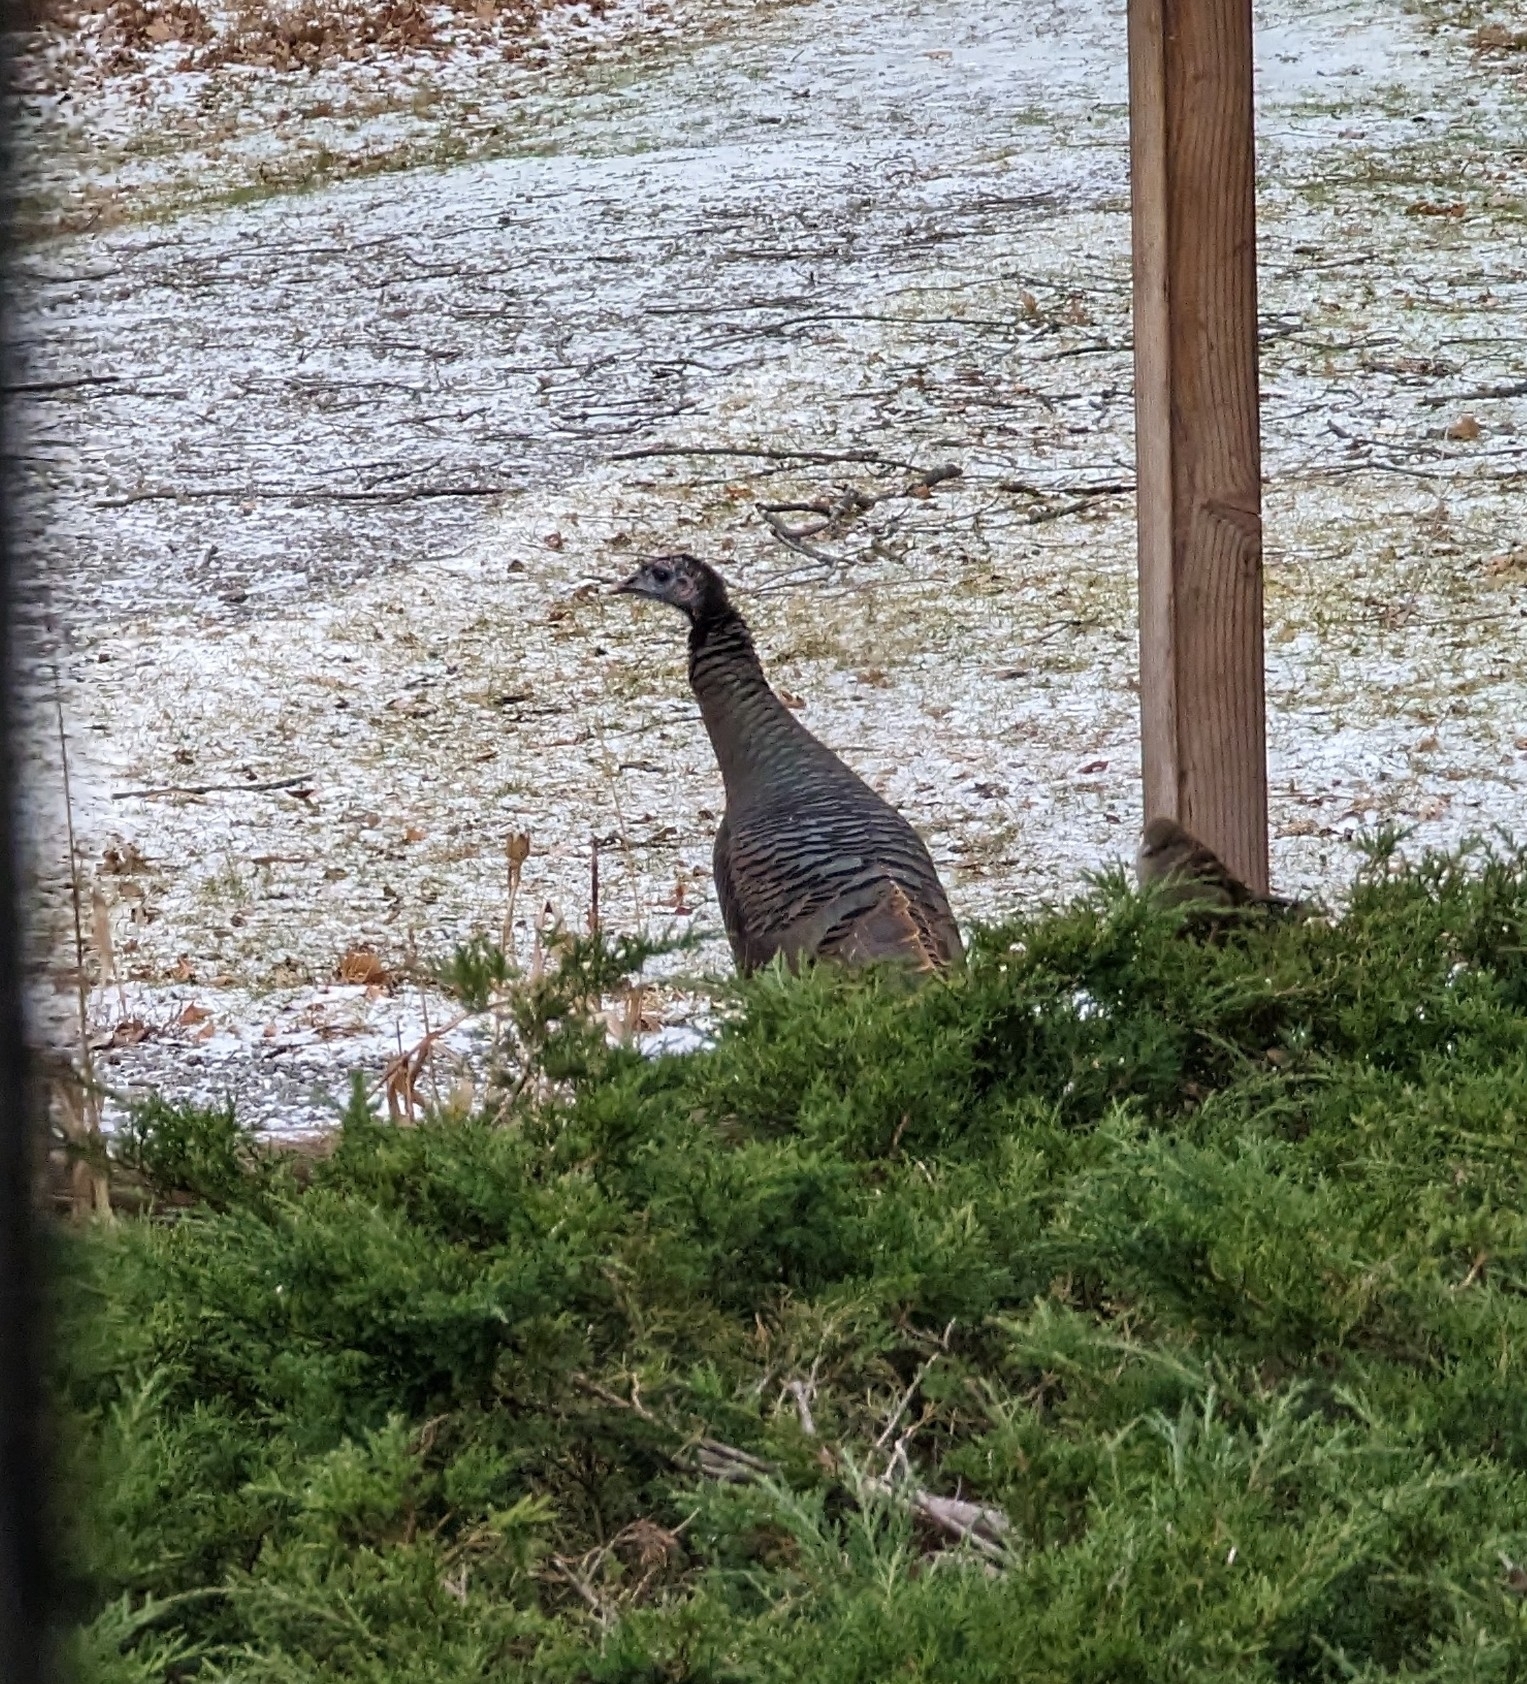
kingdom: Animalia
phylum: Chordata
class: Aves
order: Galliformes
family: Phasianidae
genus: Meleagris
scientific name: Meleagris gallopavo
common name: Wild turkey
